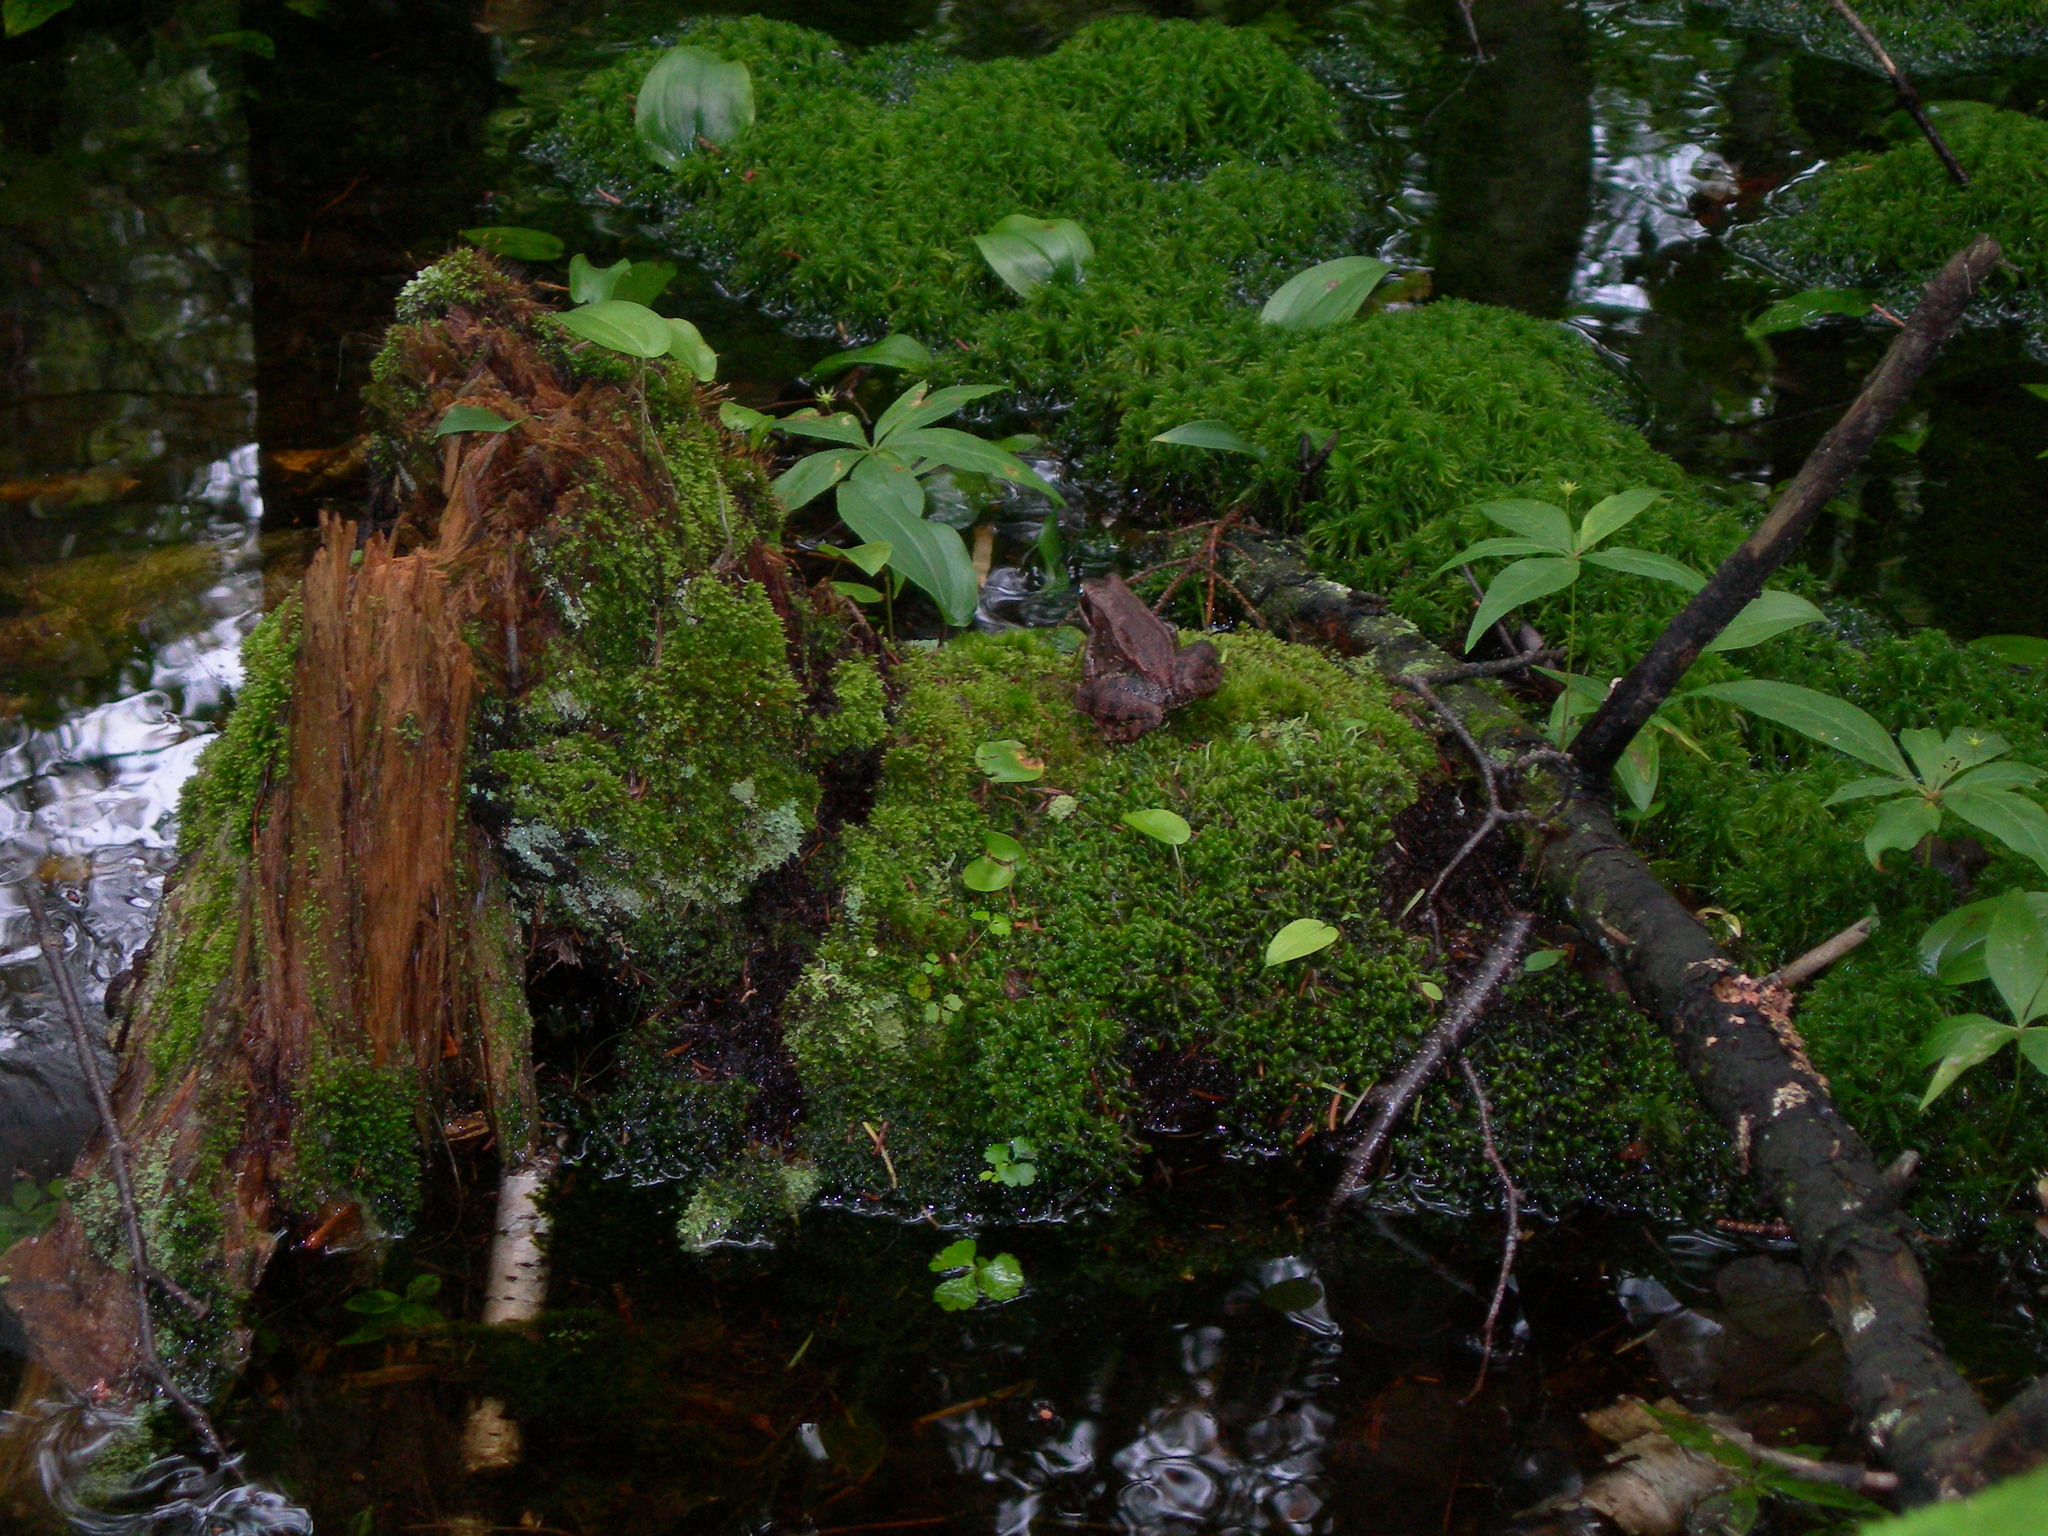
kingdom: Animalia
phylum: Chordata
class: Amphibia
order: Anura
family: Ranidae
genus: Lithobates
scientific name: Lithobates sylvaticus
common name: Wood frog
